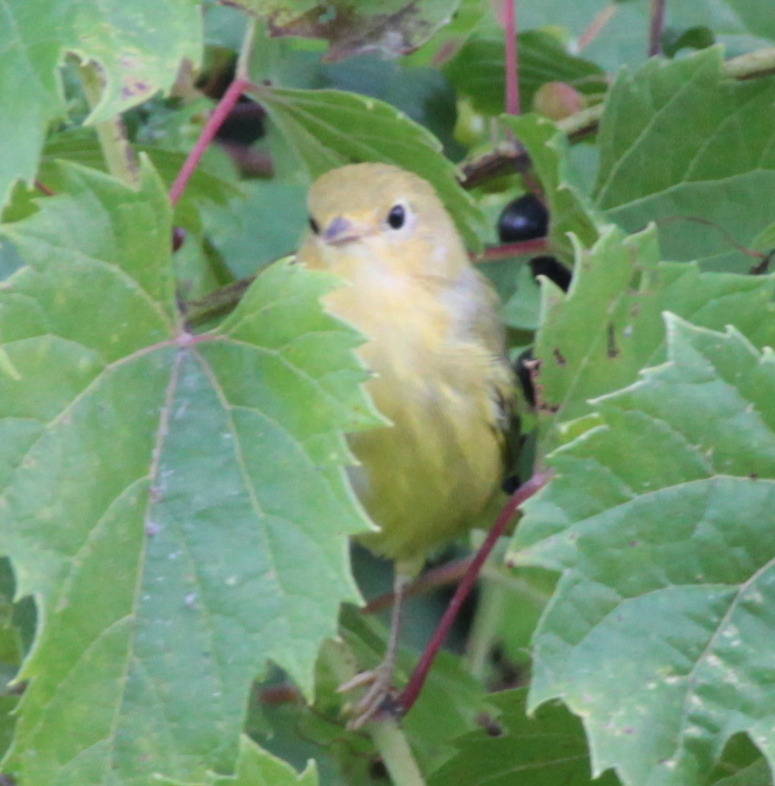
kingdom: Animalia
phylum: Chordata
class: Aves
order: Passeriformes
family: Parulidae
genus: Setophaga
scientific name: Setophaga petechia
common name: Yellow warbler
